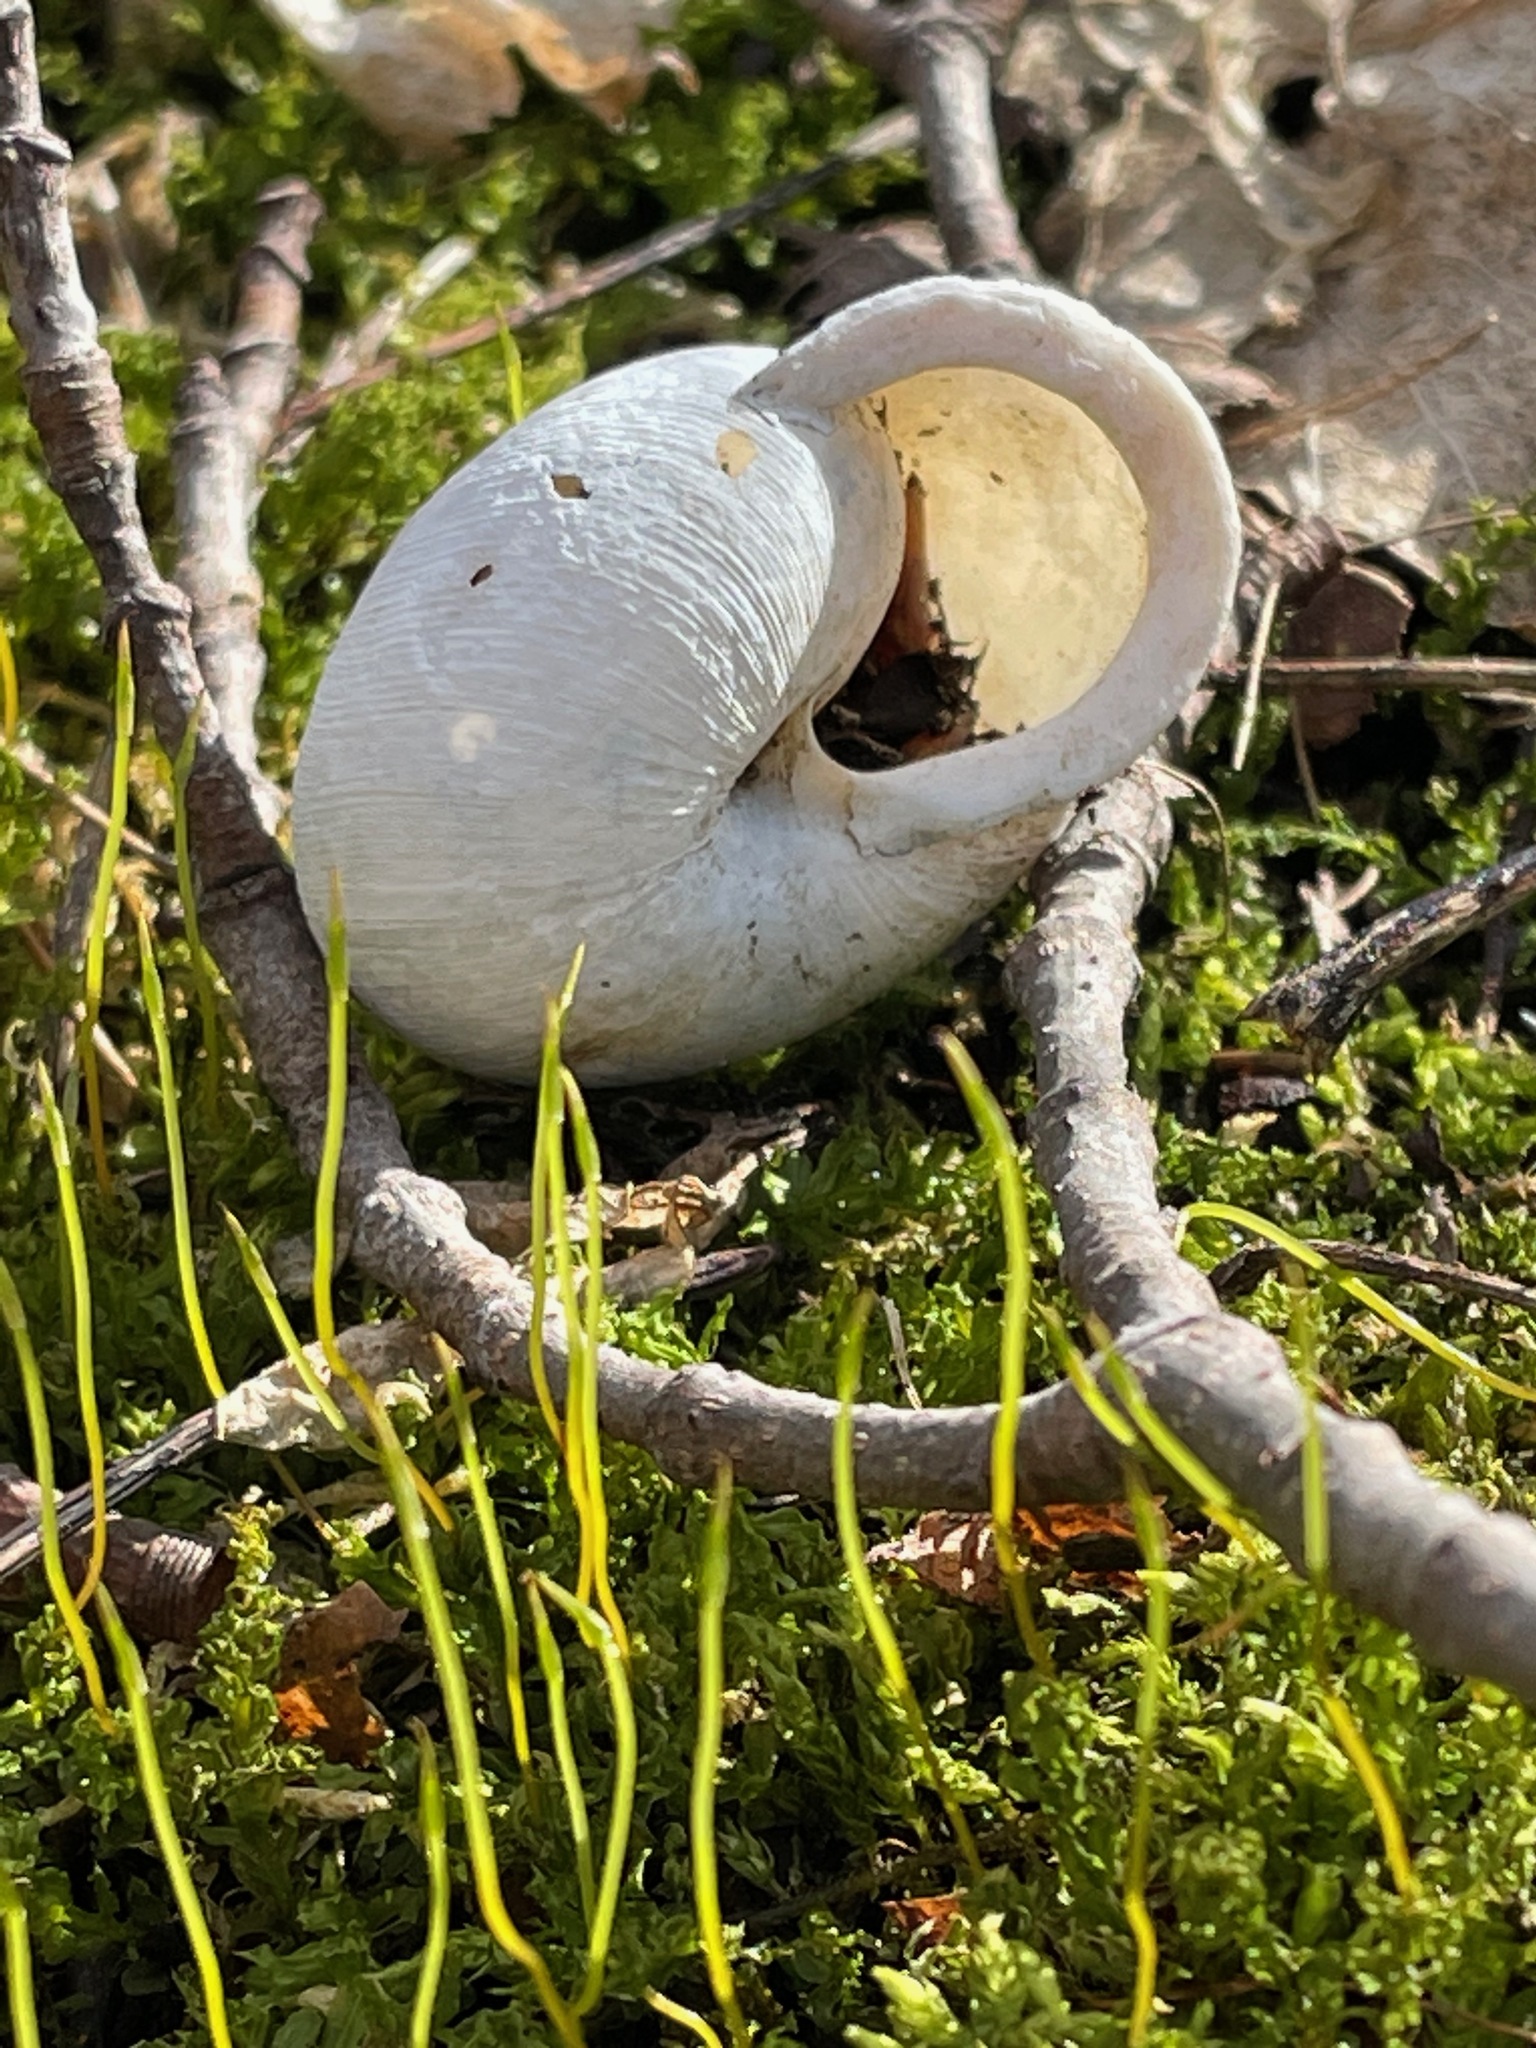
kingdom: Animalia
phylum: Mollusca
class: Gastropoda
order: Stylommatophora
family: Polygyridae
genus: Neohelix
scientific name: Neohelix albolabris
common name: Eastern whitelip
